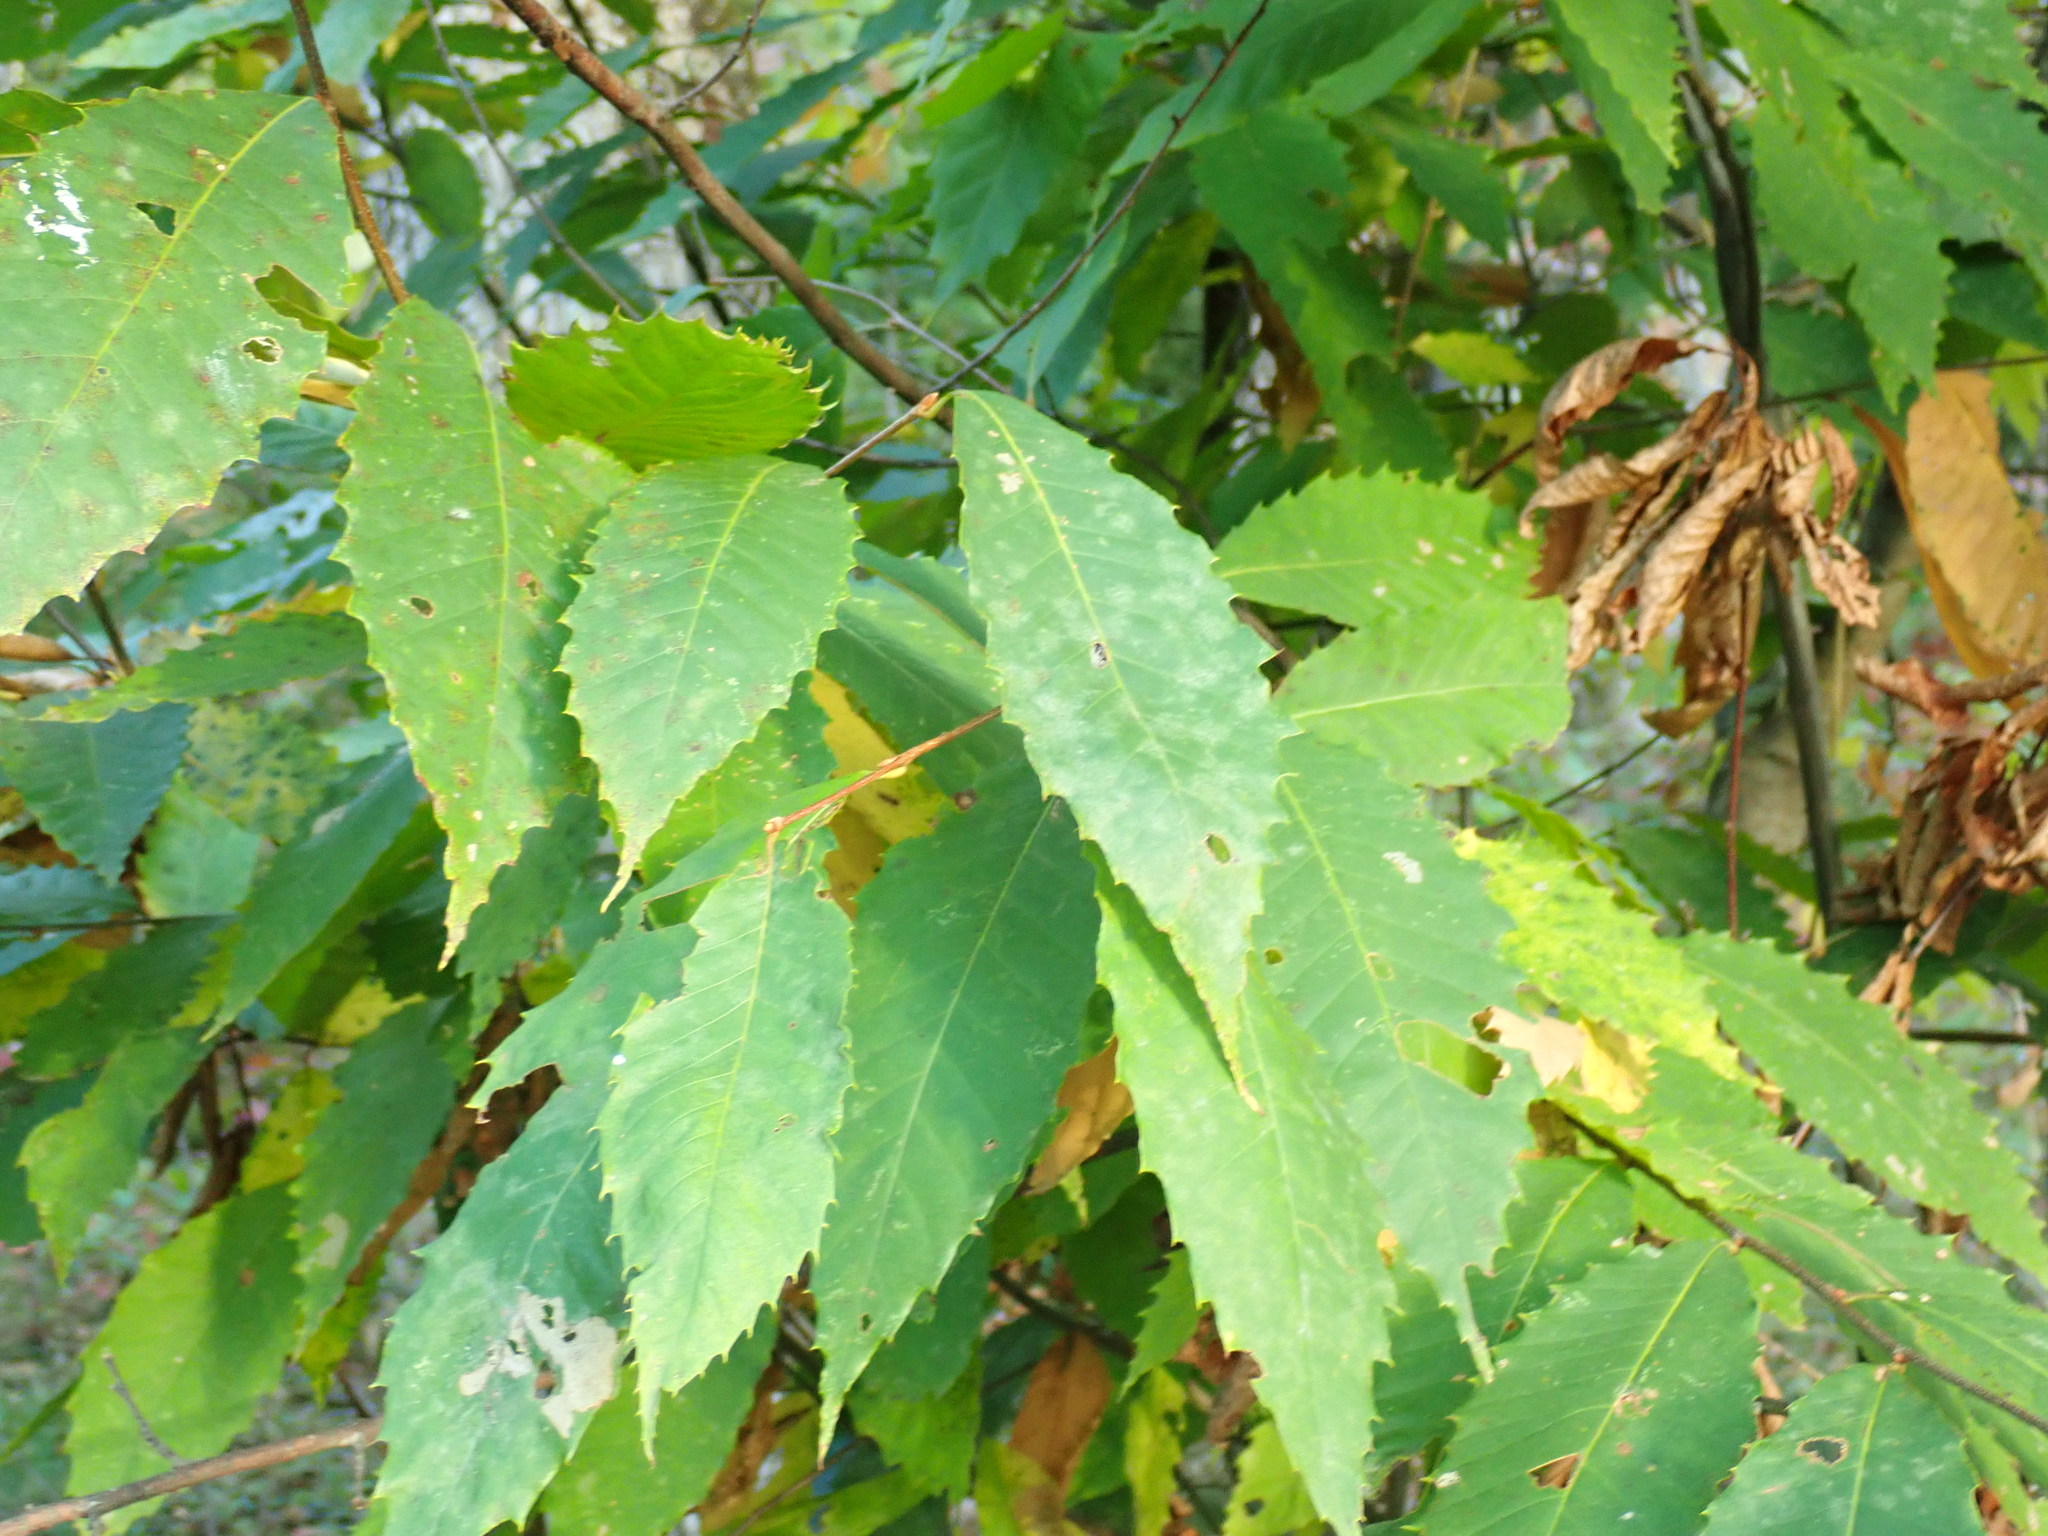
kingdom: Plantae
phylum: Tracheophyta
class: Magnoliopsida
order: Fagales
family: Fagaceae
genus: Castanea
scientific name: Castanea dentata
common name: American chestnut
